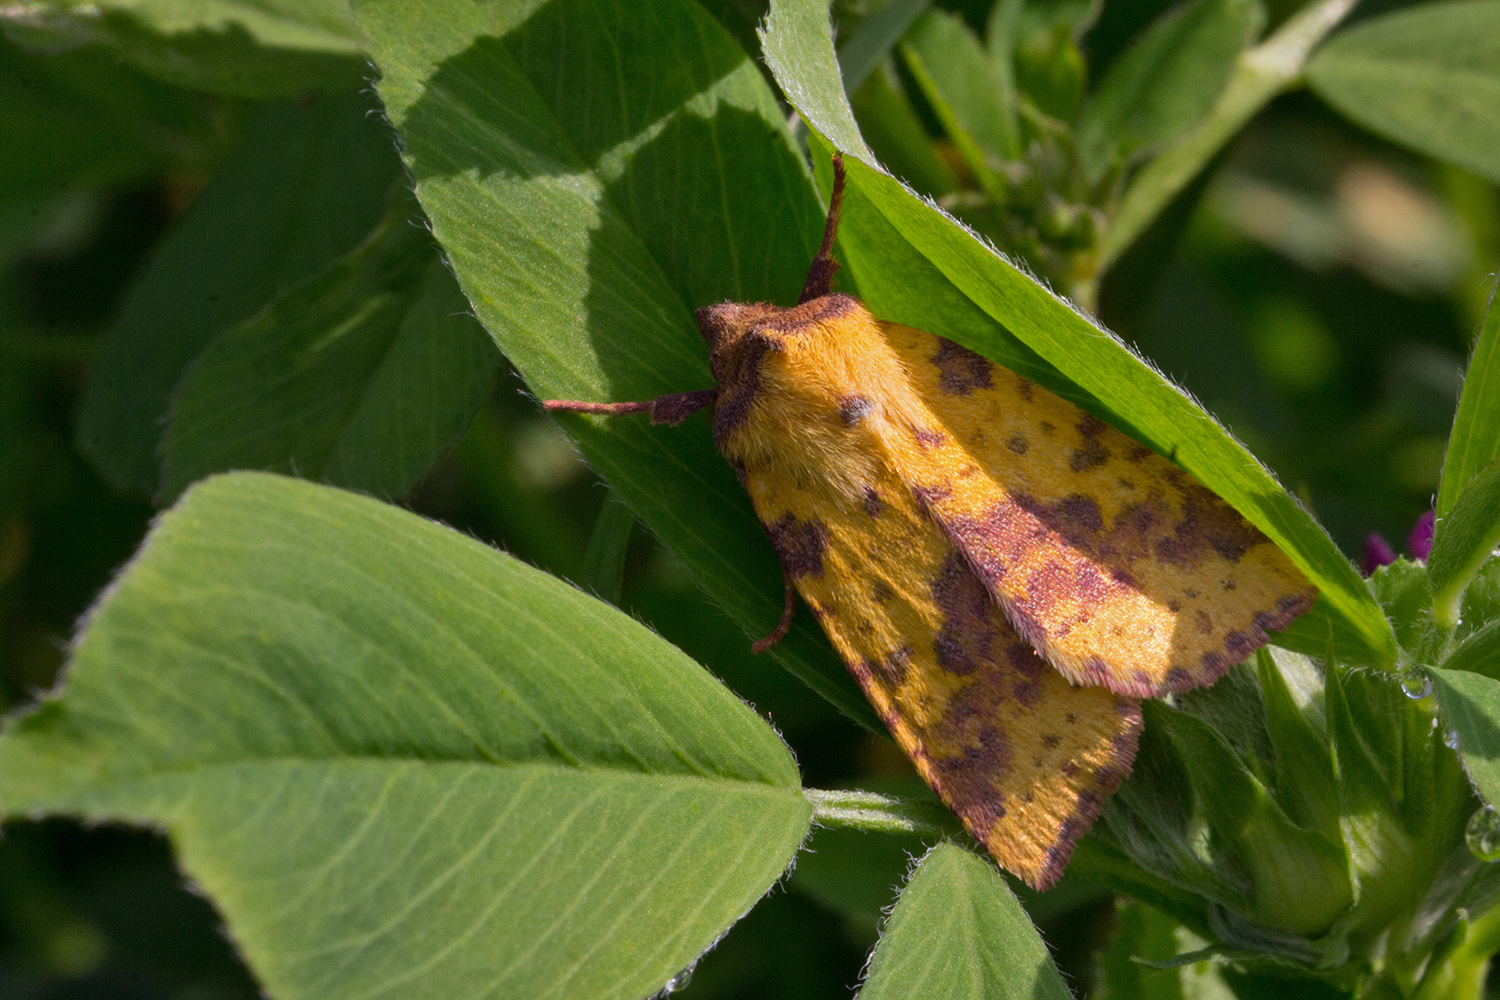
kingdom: Animalia
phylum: Arthropoda
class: Insecta
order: Lepidoptera
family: Noctuidae
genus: Xanthia
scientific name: Xanthia togata
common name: Pink-barred sallow
